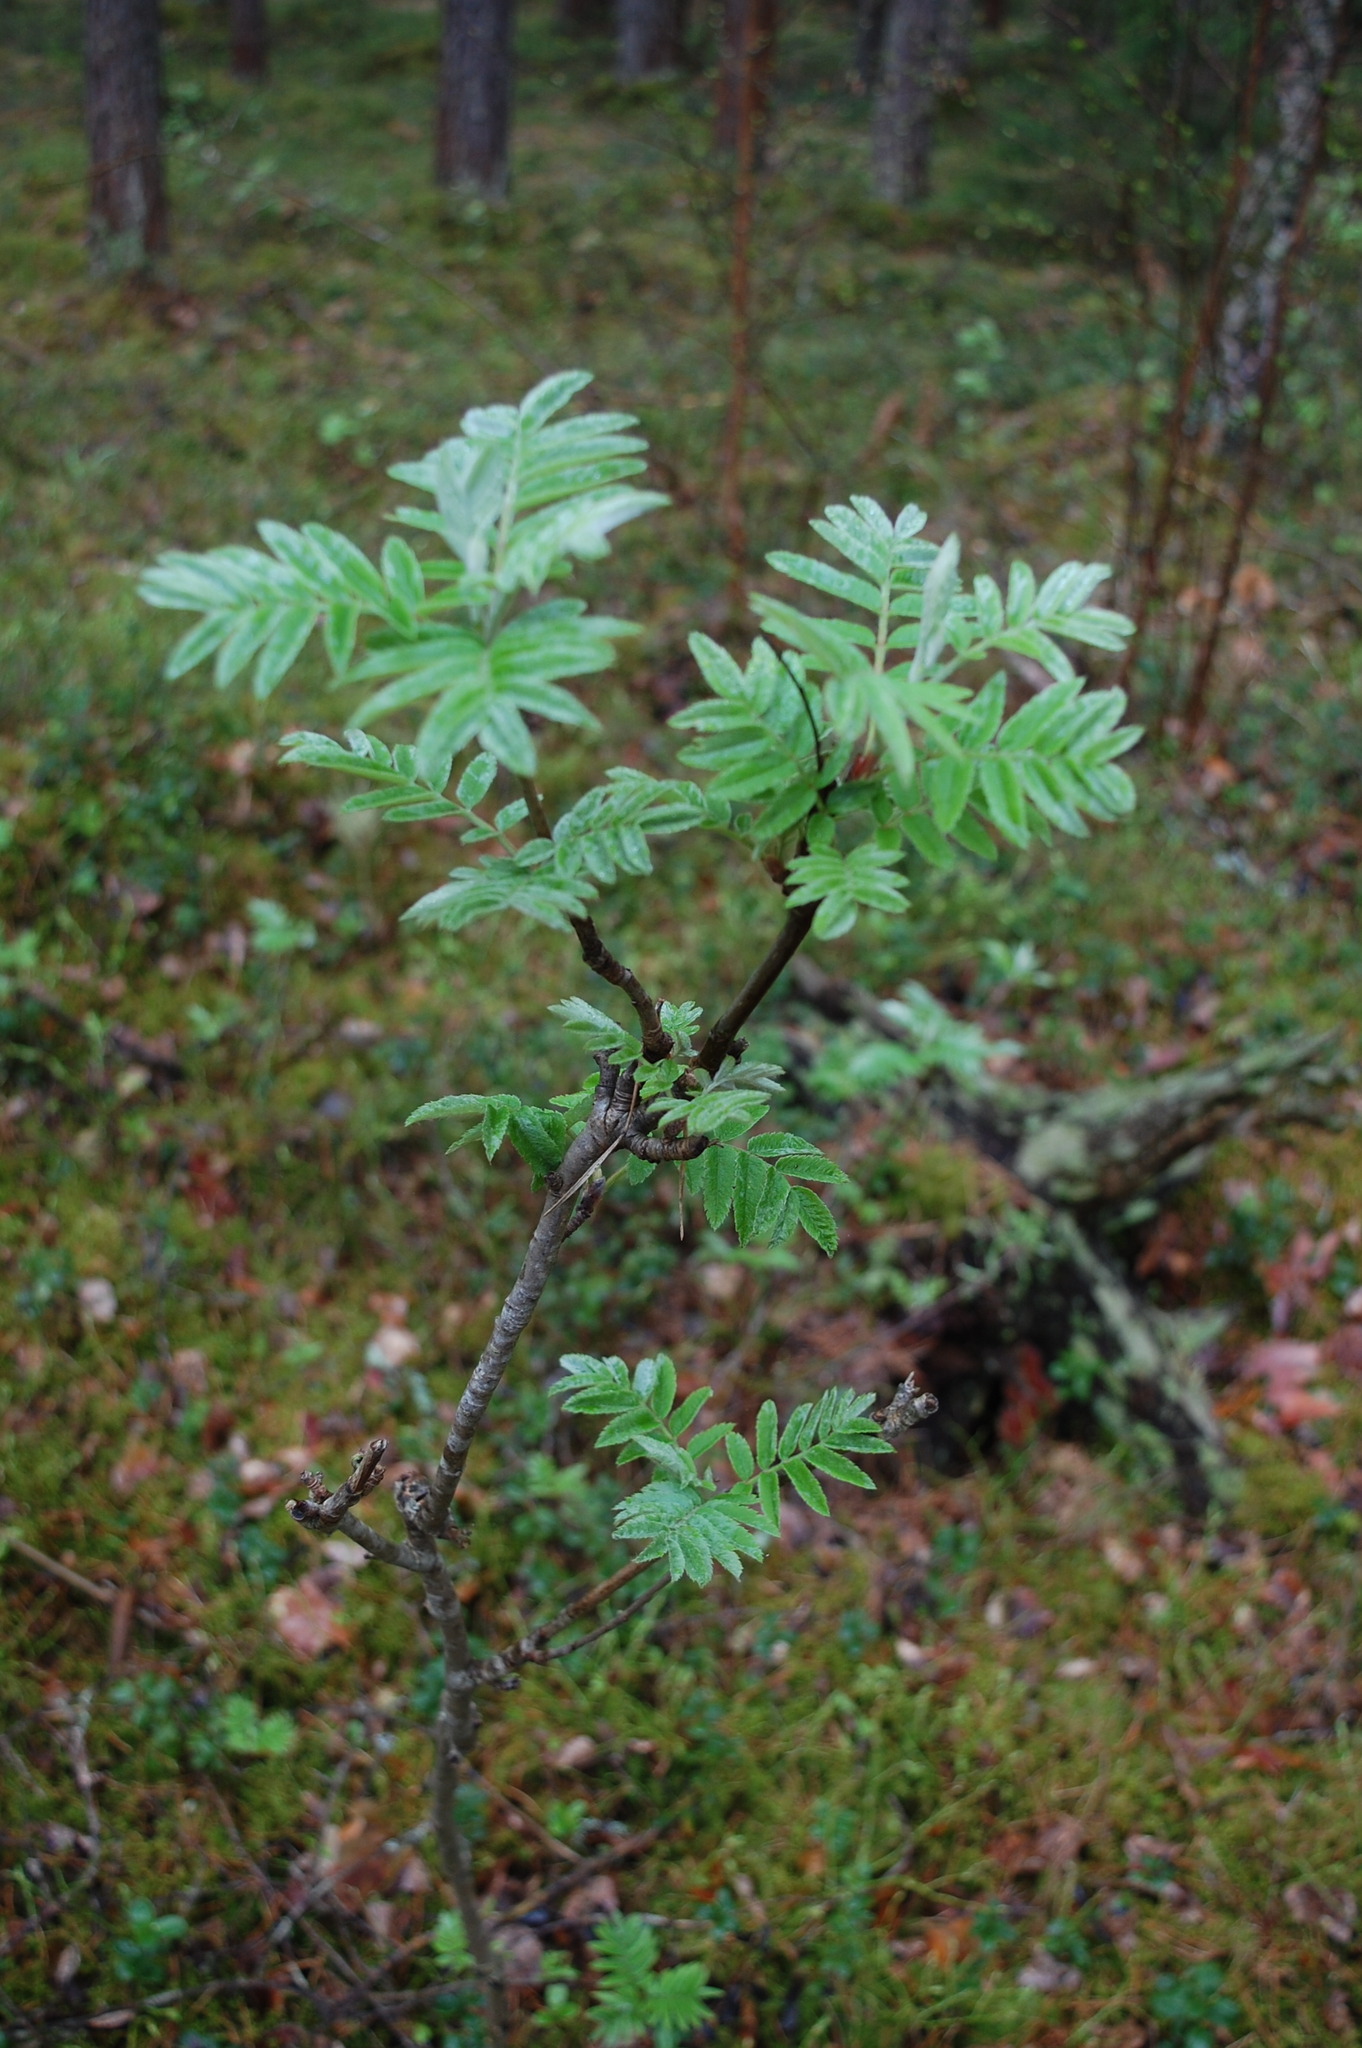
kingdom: Plantae
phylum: Tracheophyta
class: Magnoliopsida
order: Rosales
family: Rosaceae
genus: Sorbus
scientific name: Sorbus aucuparia
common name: Rowan
